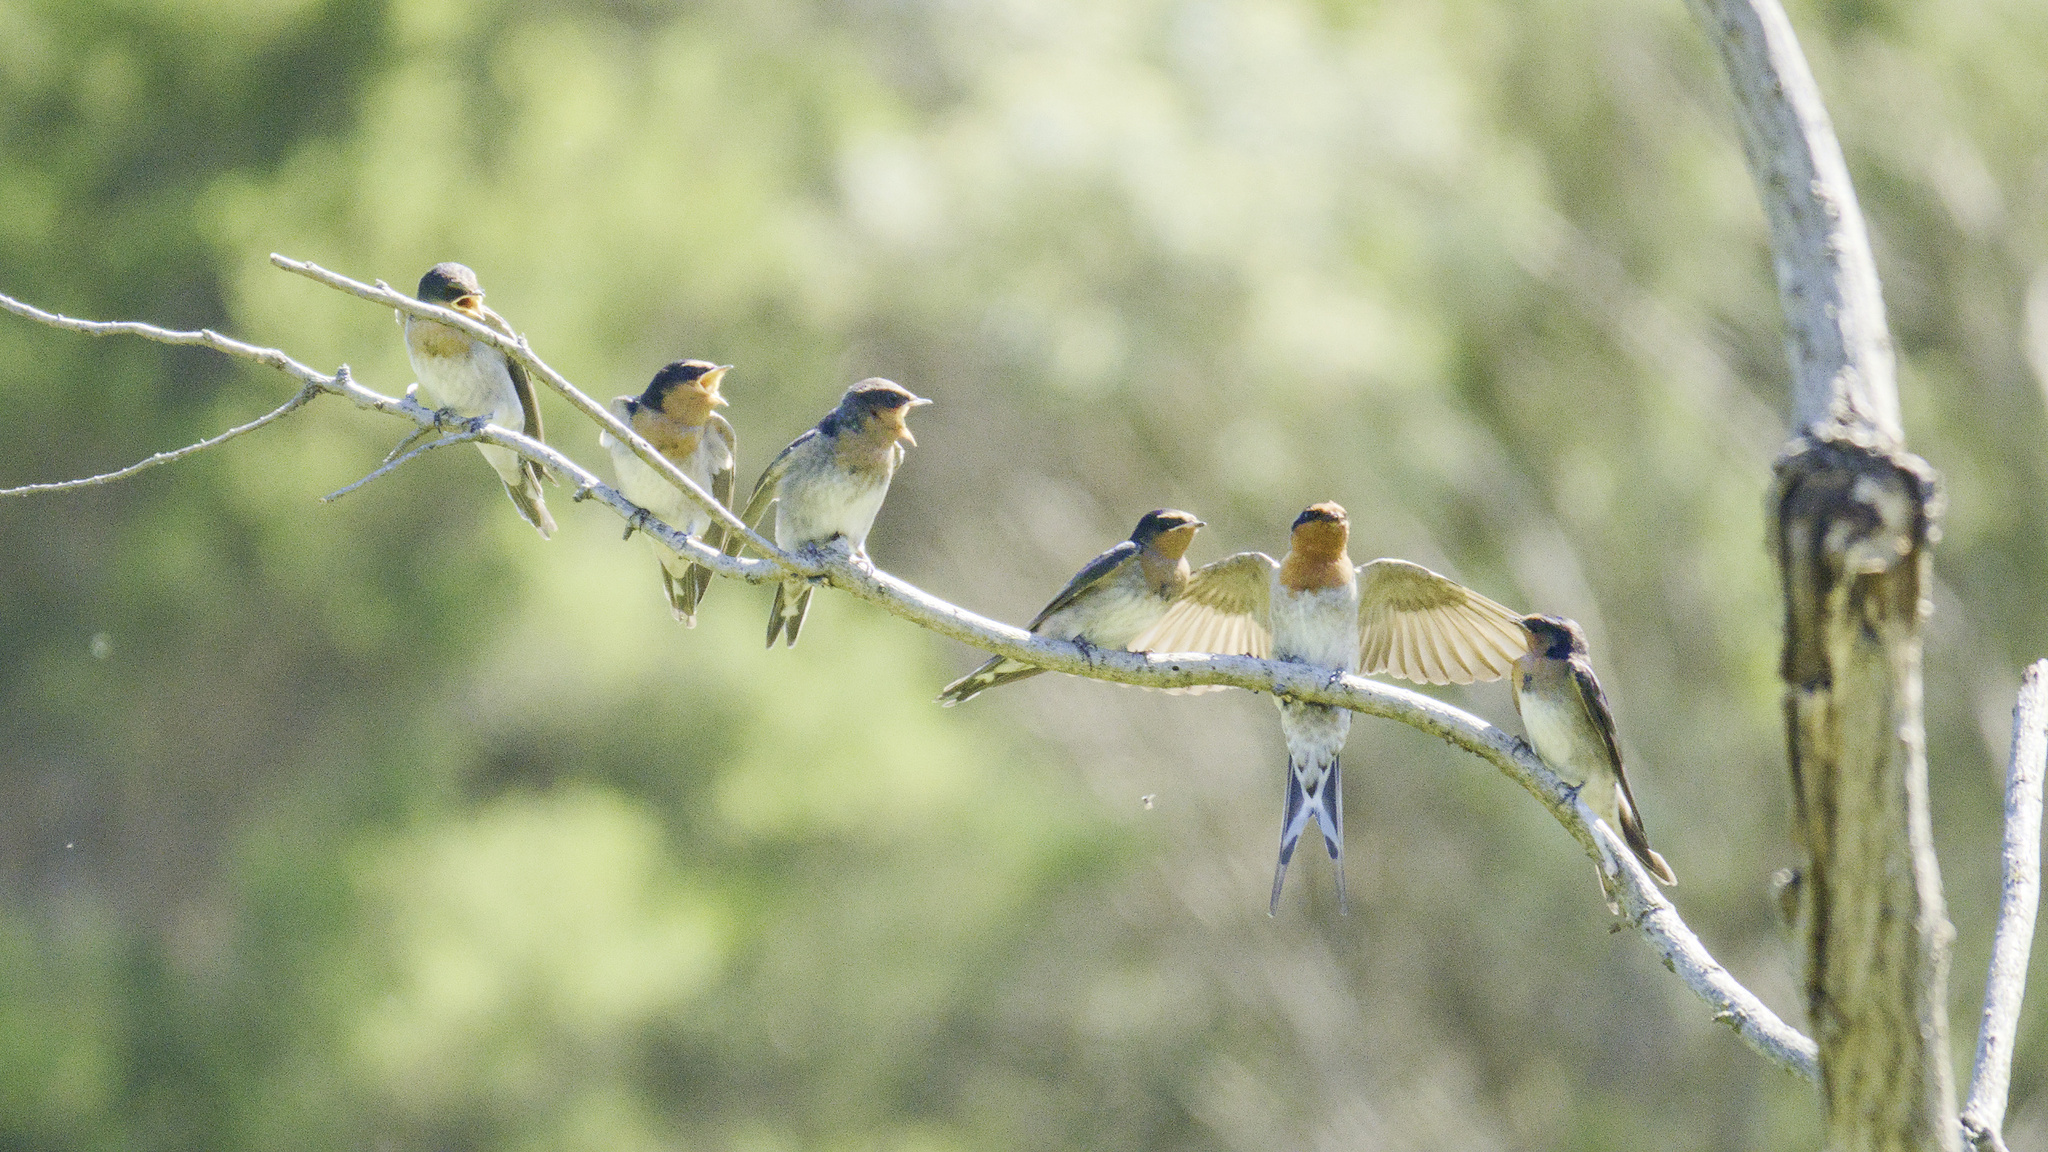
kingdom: Animalia
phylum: Chordata
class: Aves
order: Passeriformes
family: Hirundinidae
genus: Hirundo
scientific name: Hirundo neoxena
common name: Welcome swallow
